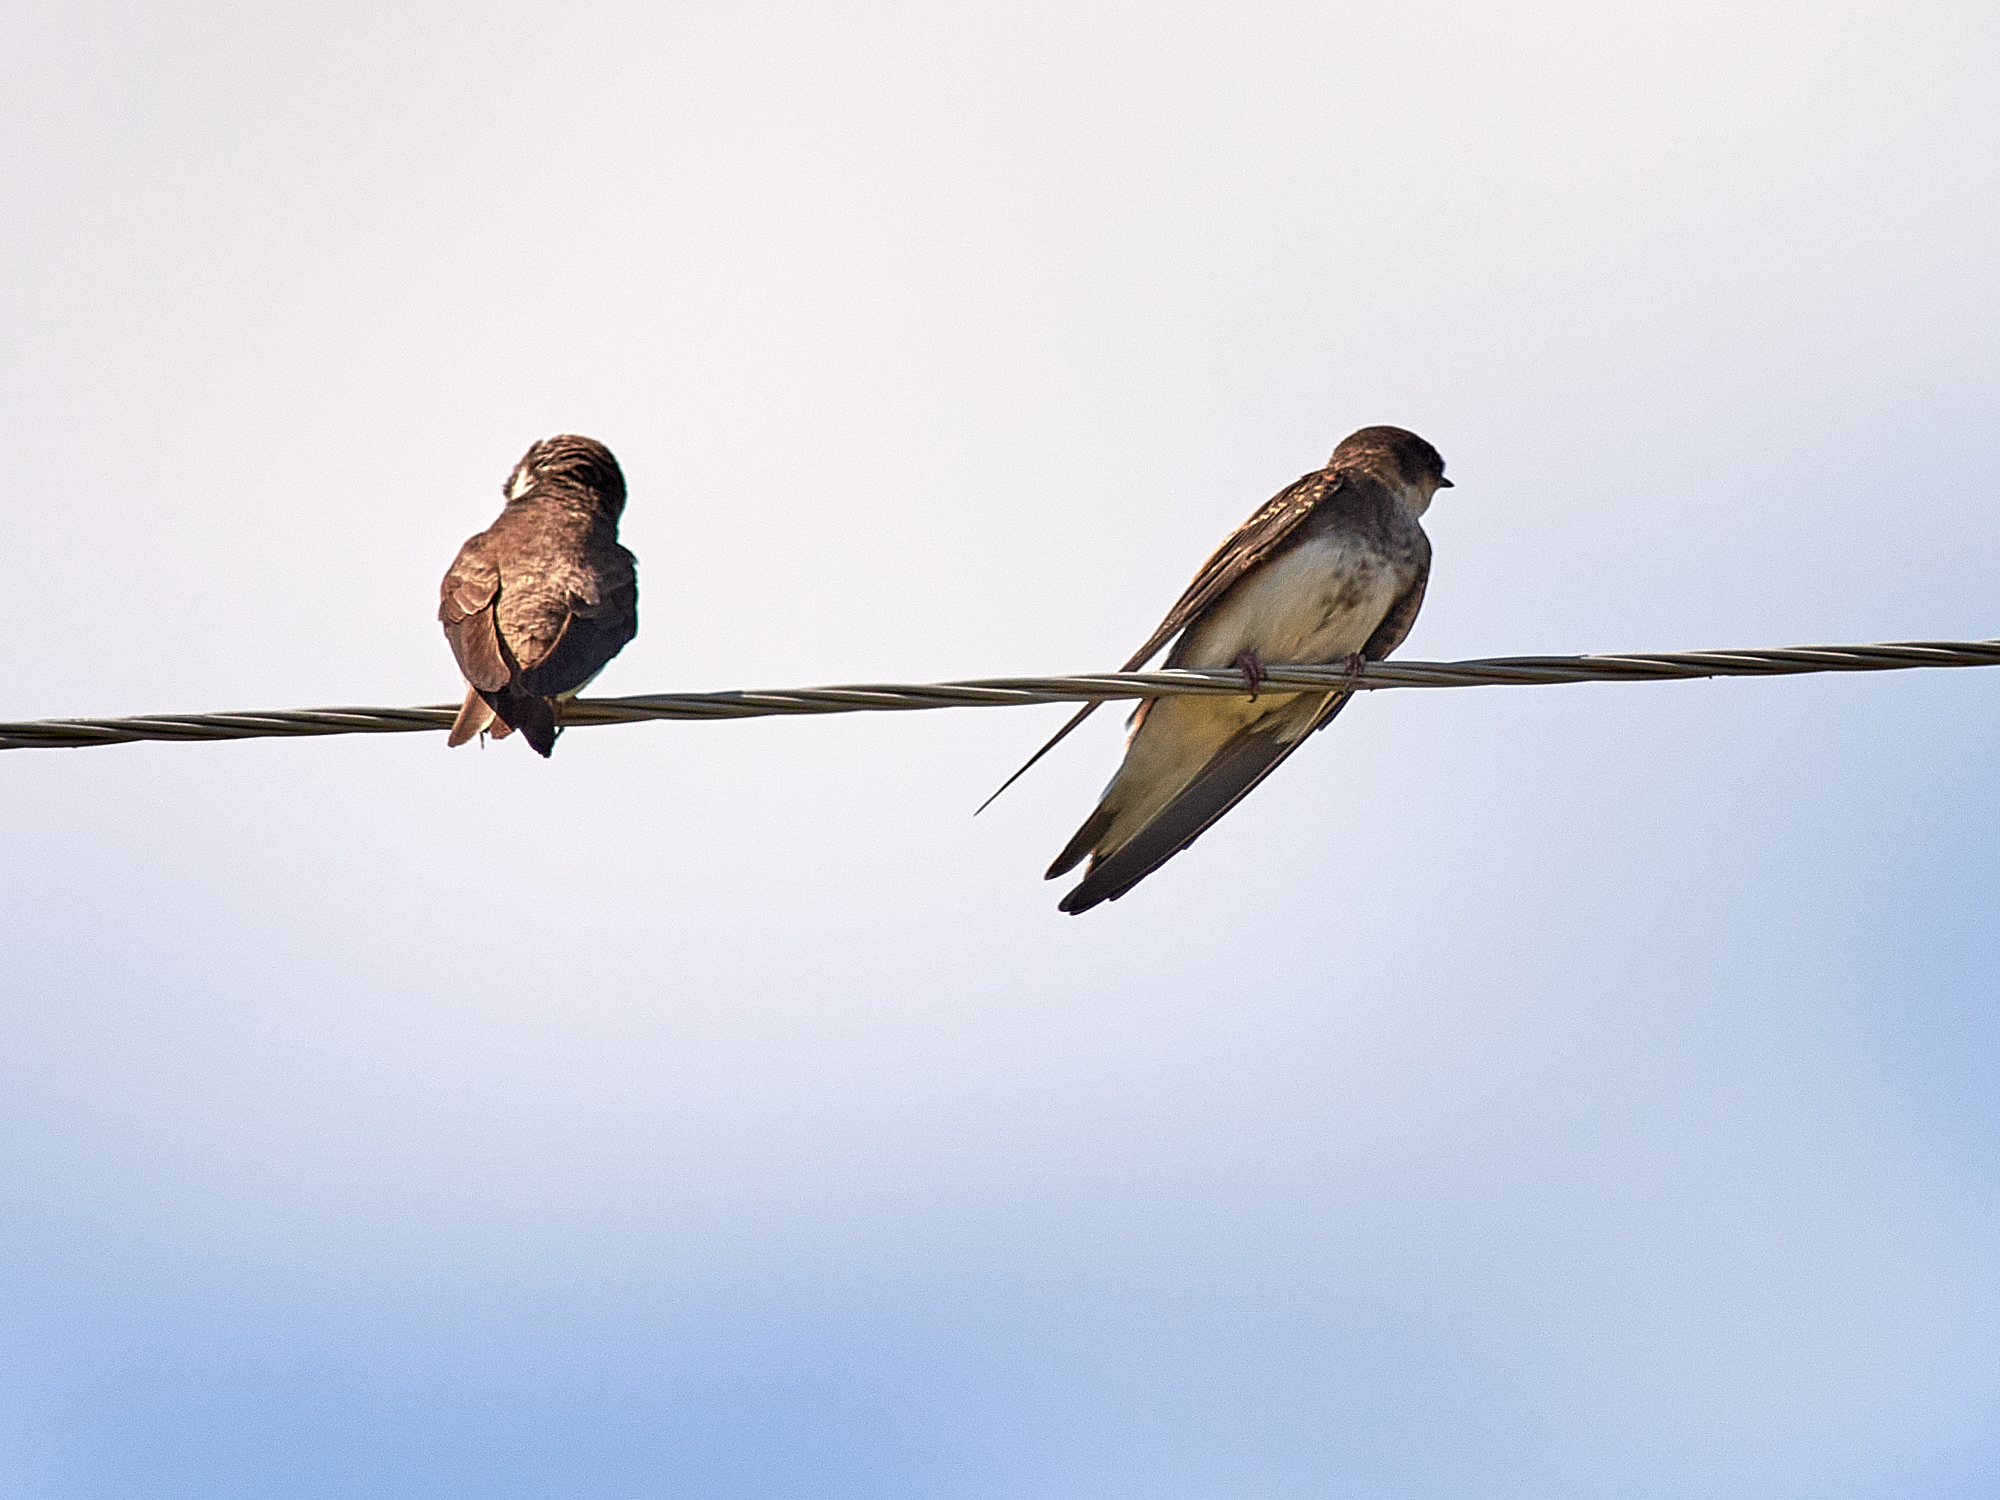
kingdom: Animalia
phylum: Chordata
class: Aves
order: Passeriformes
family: Hirundinidae
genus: Riparia
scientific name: Riparia riparia
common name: Sand martin
